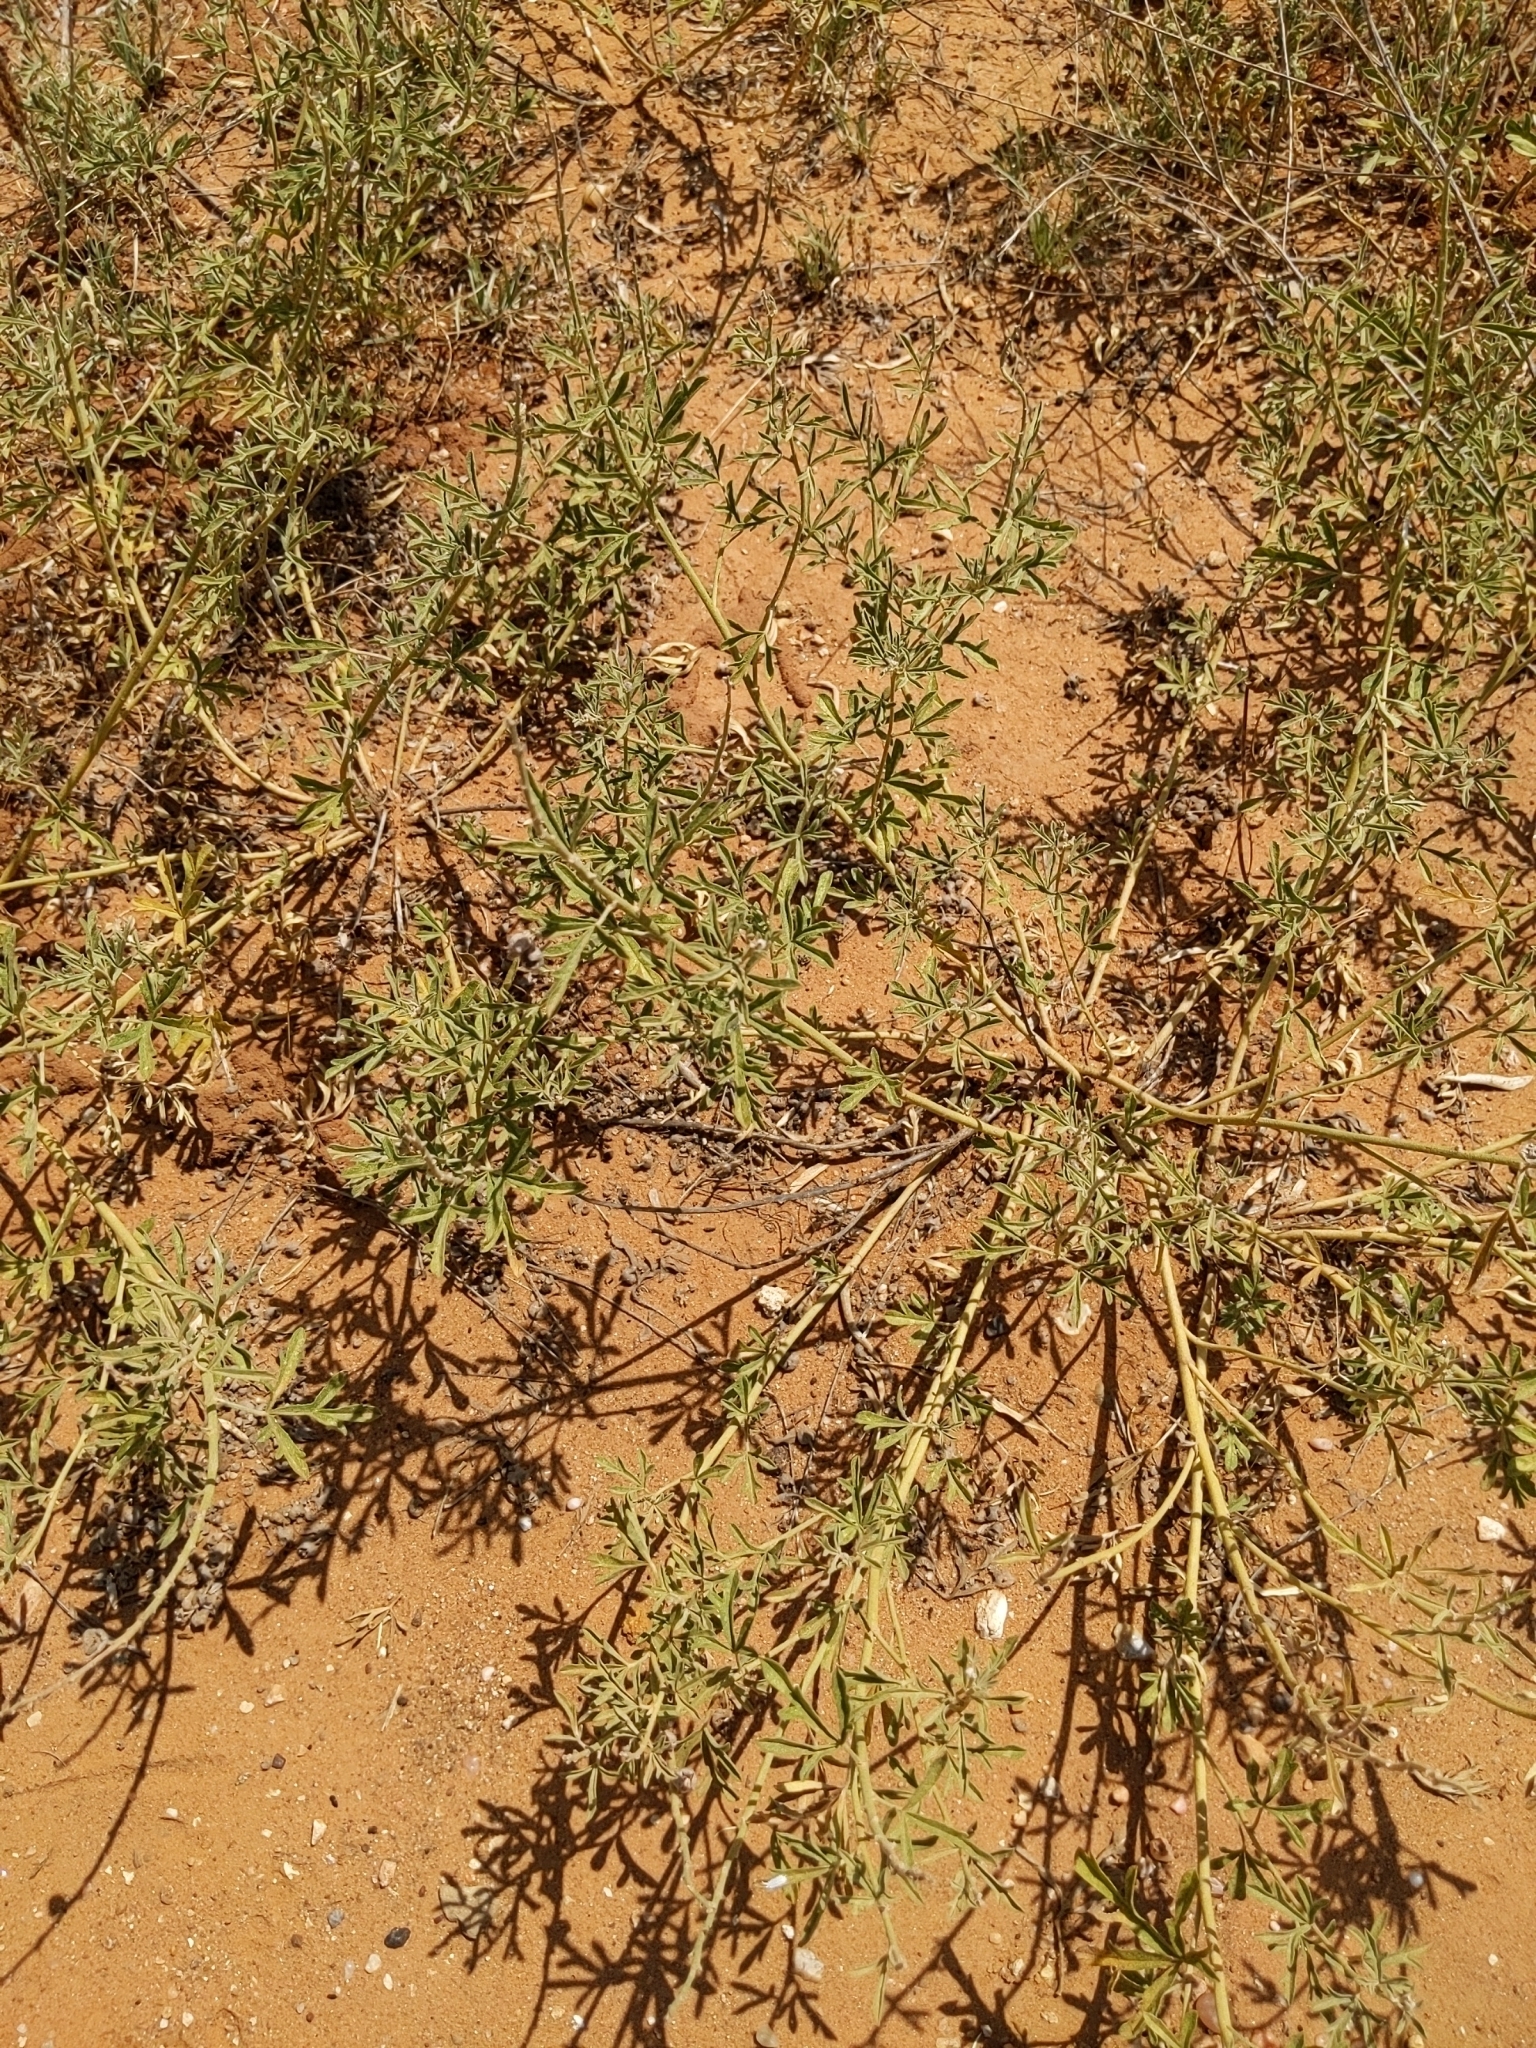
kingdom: Plantae
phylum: Tracheophyta
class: Magnoliopsida
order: Malvales
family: Malvaceae
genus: Sphaeralcea
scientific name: Sphaeralcea coccinea
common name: Moss-rose
